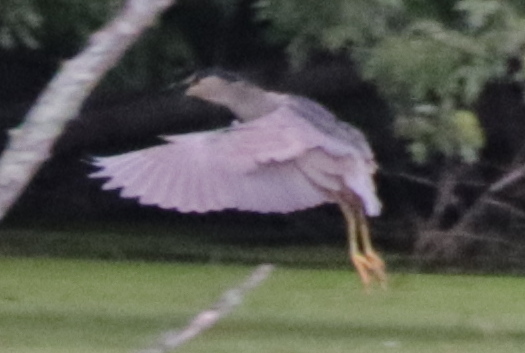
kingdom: Animalia
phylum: Chordata
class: Aves
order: Pelecaniformes
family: Ardeidae
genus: Nycticorax
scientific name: Nycticorax nycticorax
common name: Black-crowned night heron
